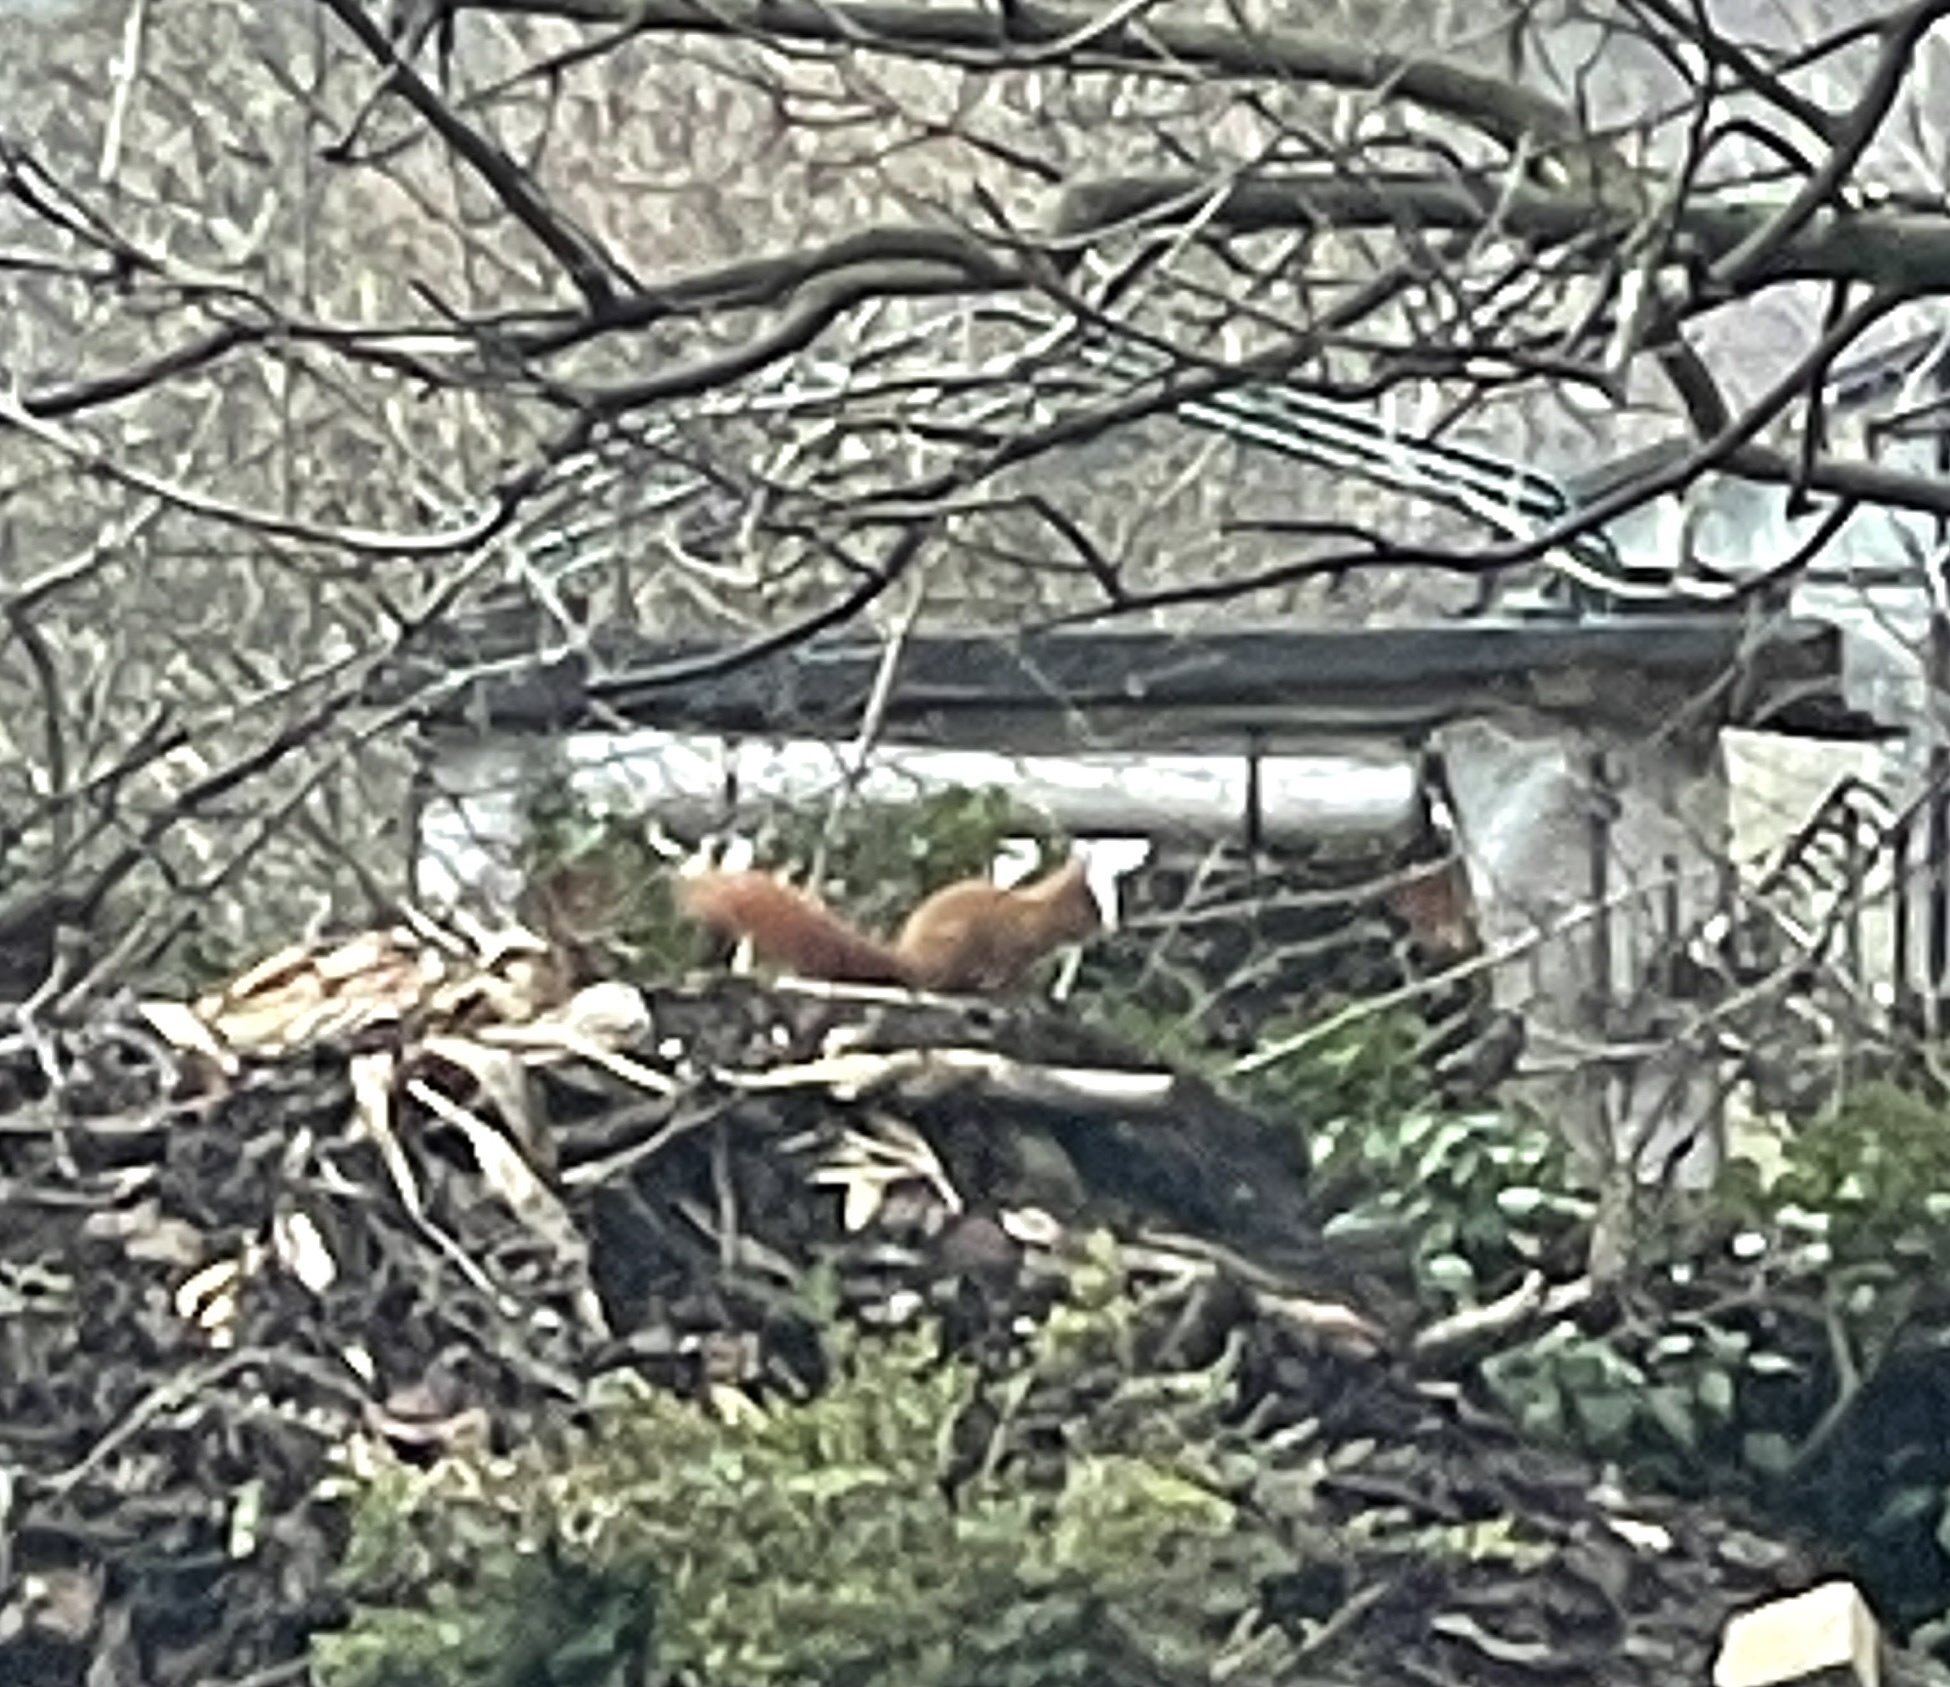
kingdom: Animalia
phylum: Chordata
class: Mammalia
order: Rodentia
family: Sciuridae
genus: Sciurus
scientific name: Sciurus vulgaris
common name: Eurasian red squirrel
